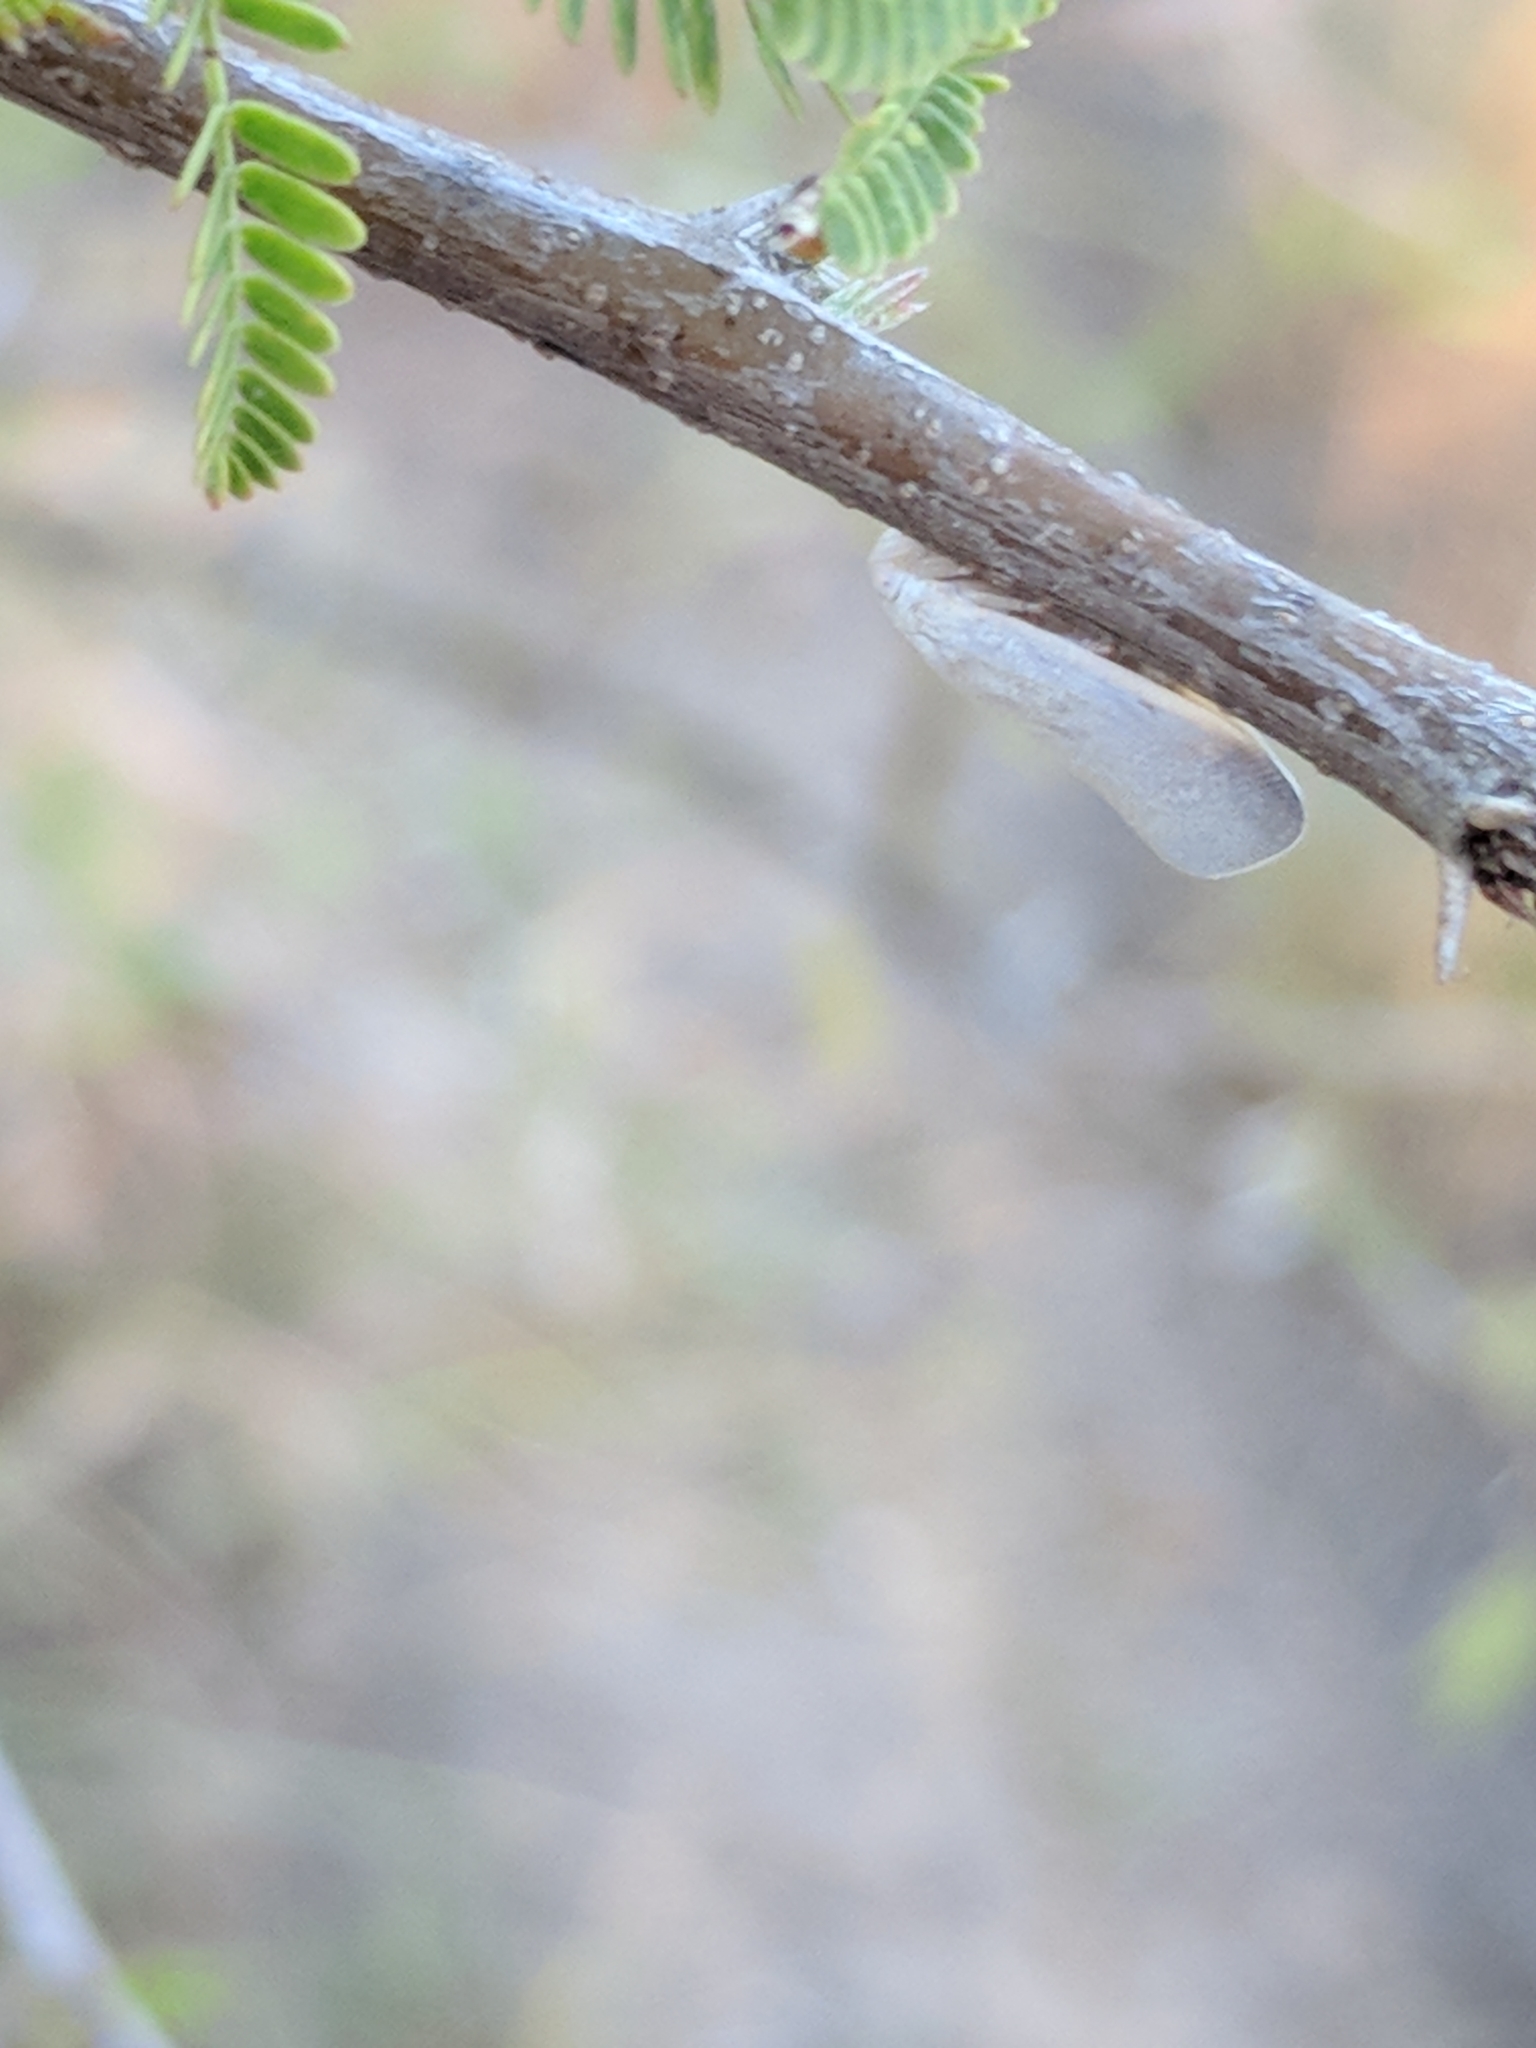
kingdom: Animalia
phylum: Arthropoda
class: Insecta
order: Hemiptera
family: Flatidae
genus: Flatormenis
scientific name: Flatormenis saucia
